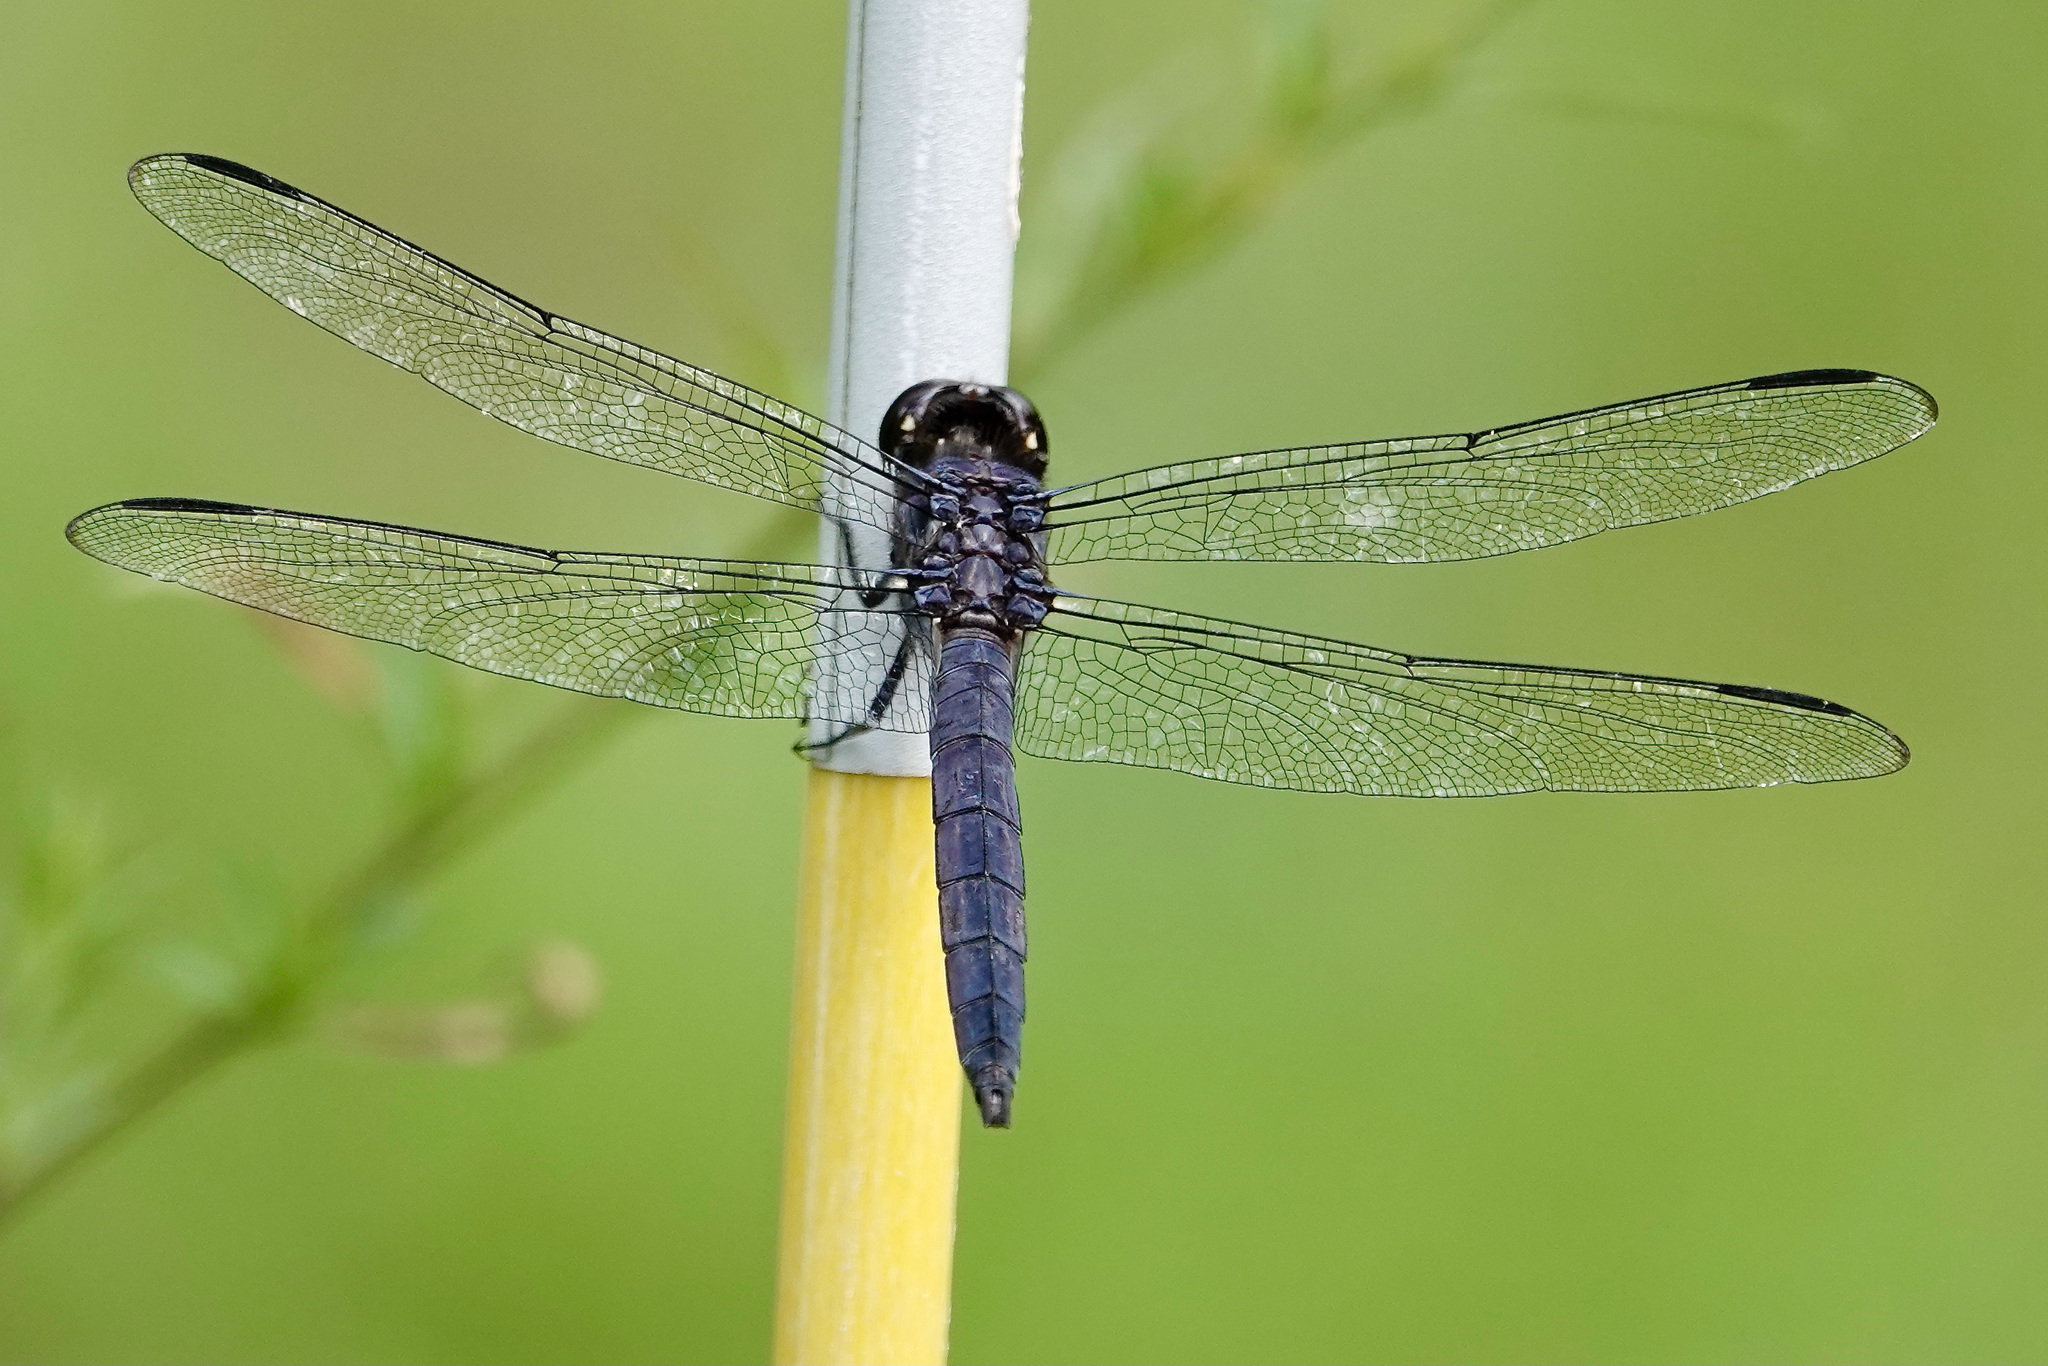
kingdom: Animalia
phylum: Arthropoda
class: Insecta
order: Odonata
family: Libellulidae
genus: Libellula
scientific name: Libellula incesta
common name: Slaty skimmer
